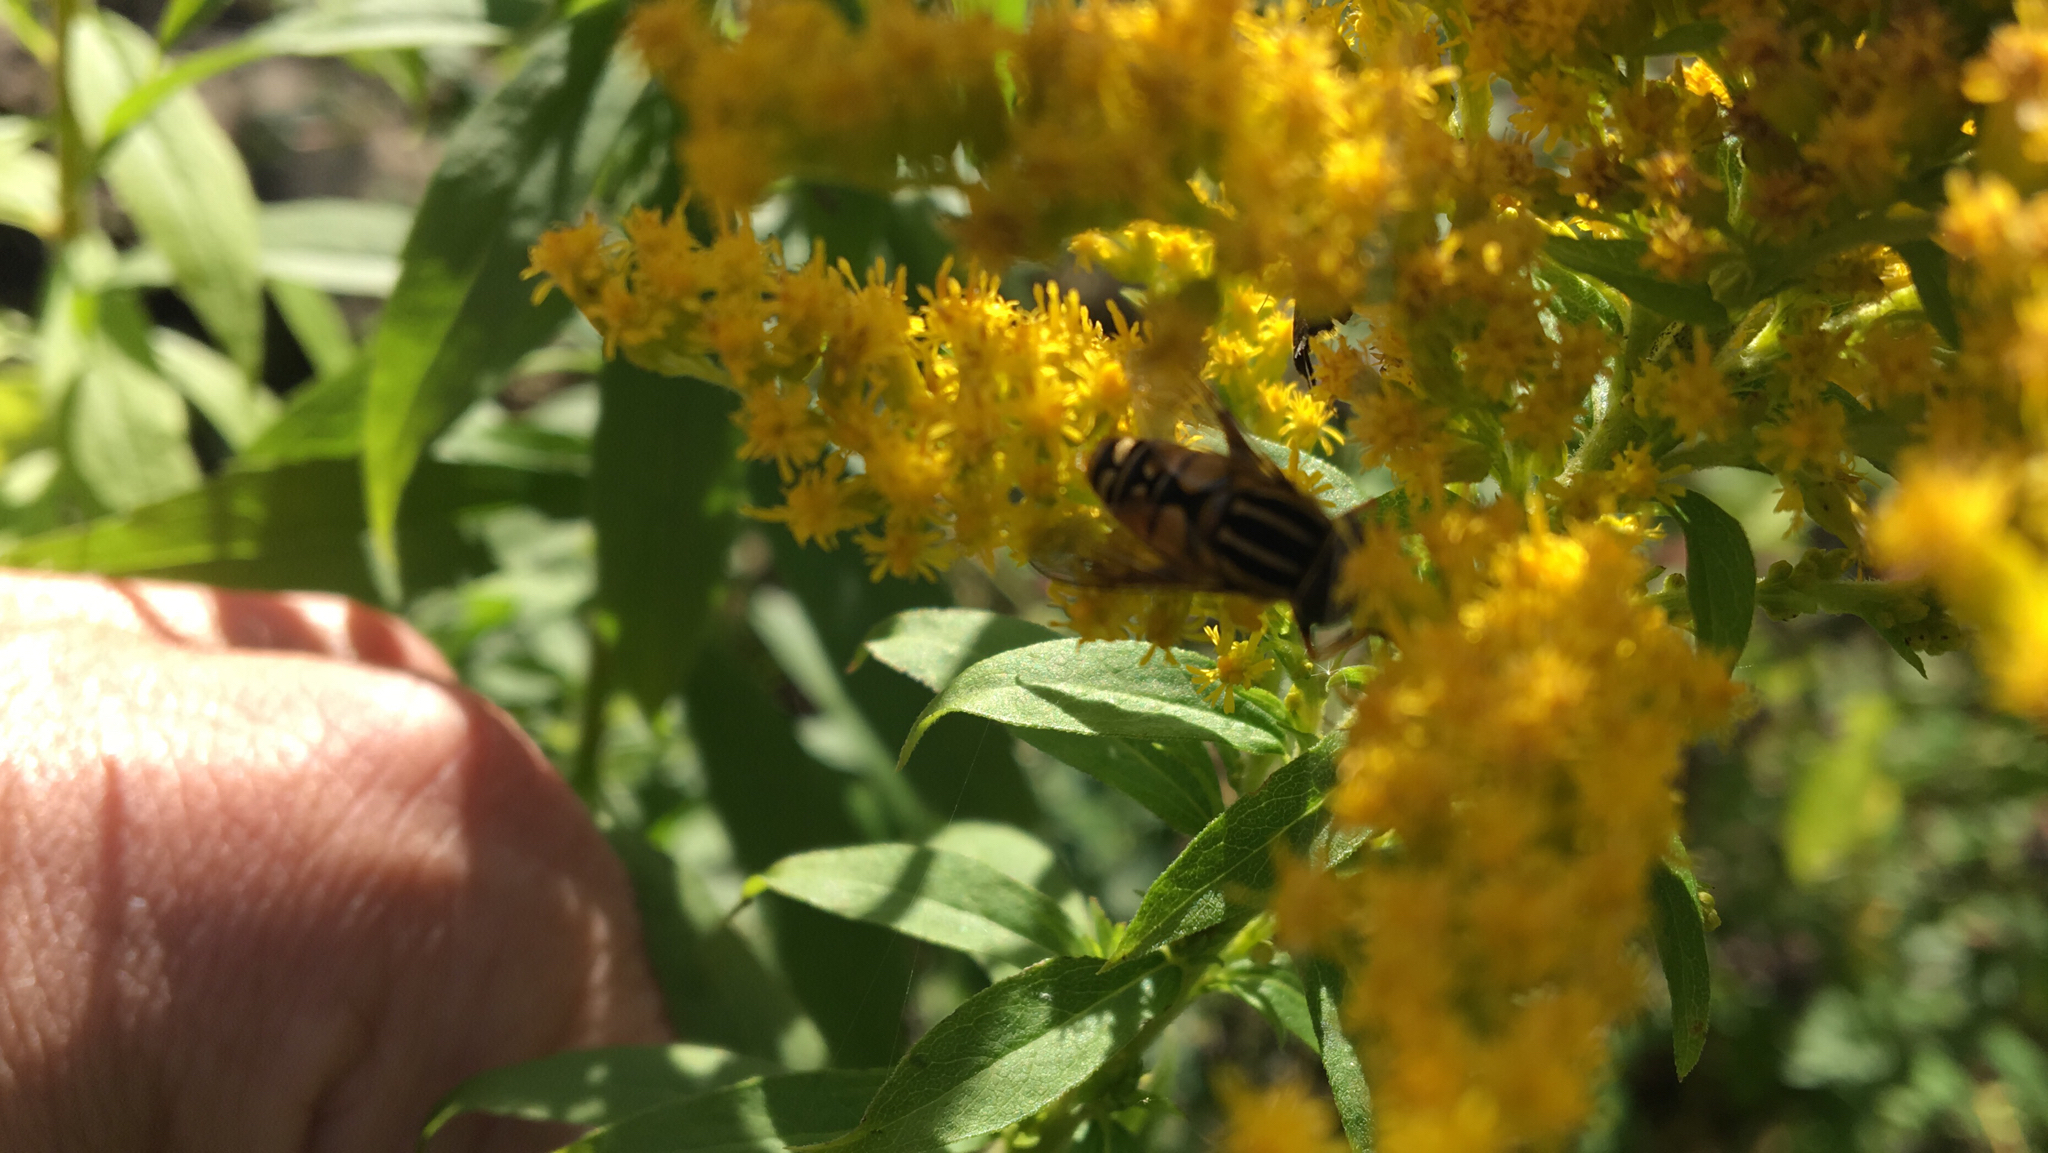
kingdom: Animalia
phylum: Arthropoda
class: Insecta
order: Diptera
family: Syrphidae
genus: Helophilus
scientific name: Helophilus pendulus
